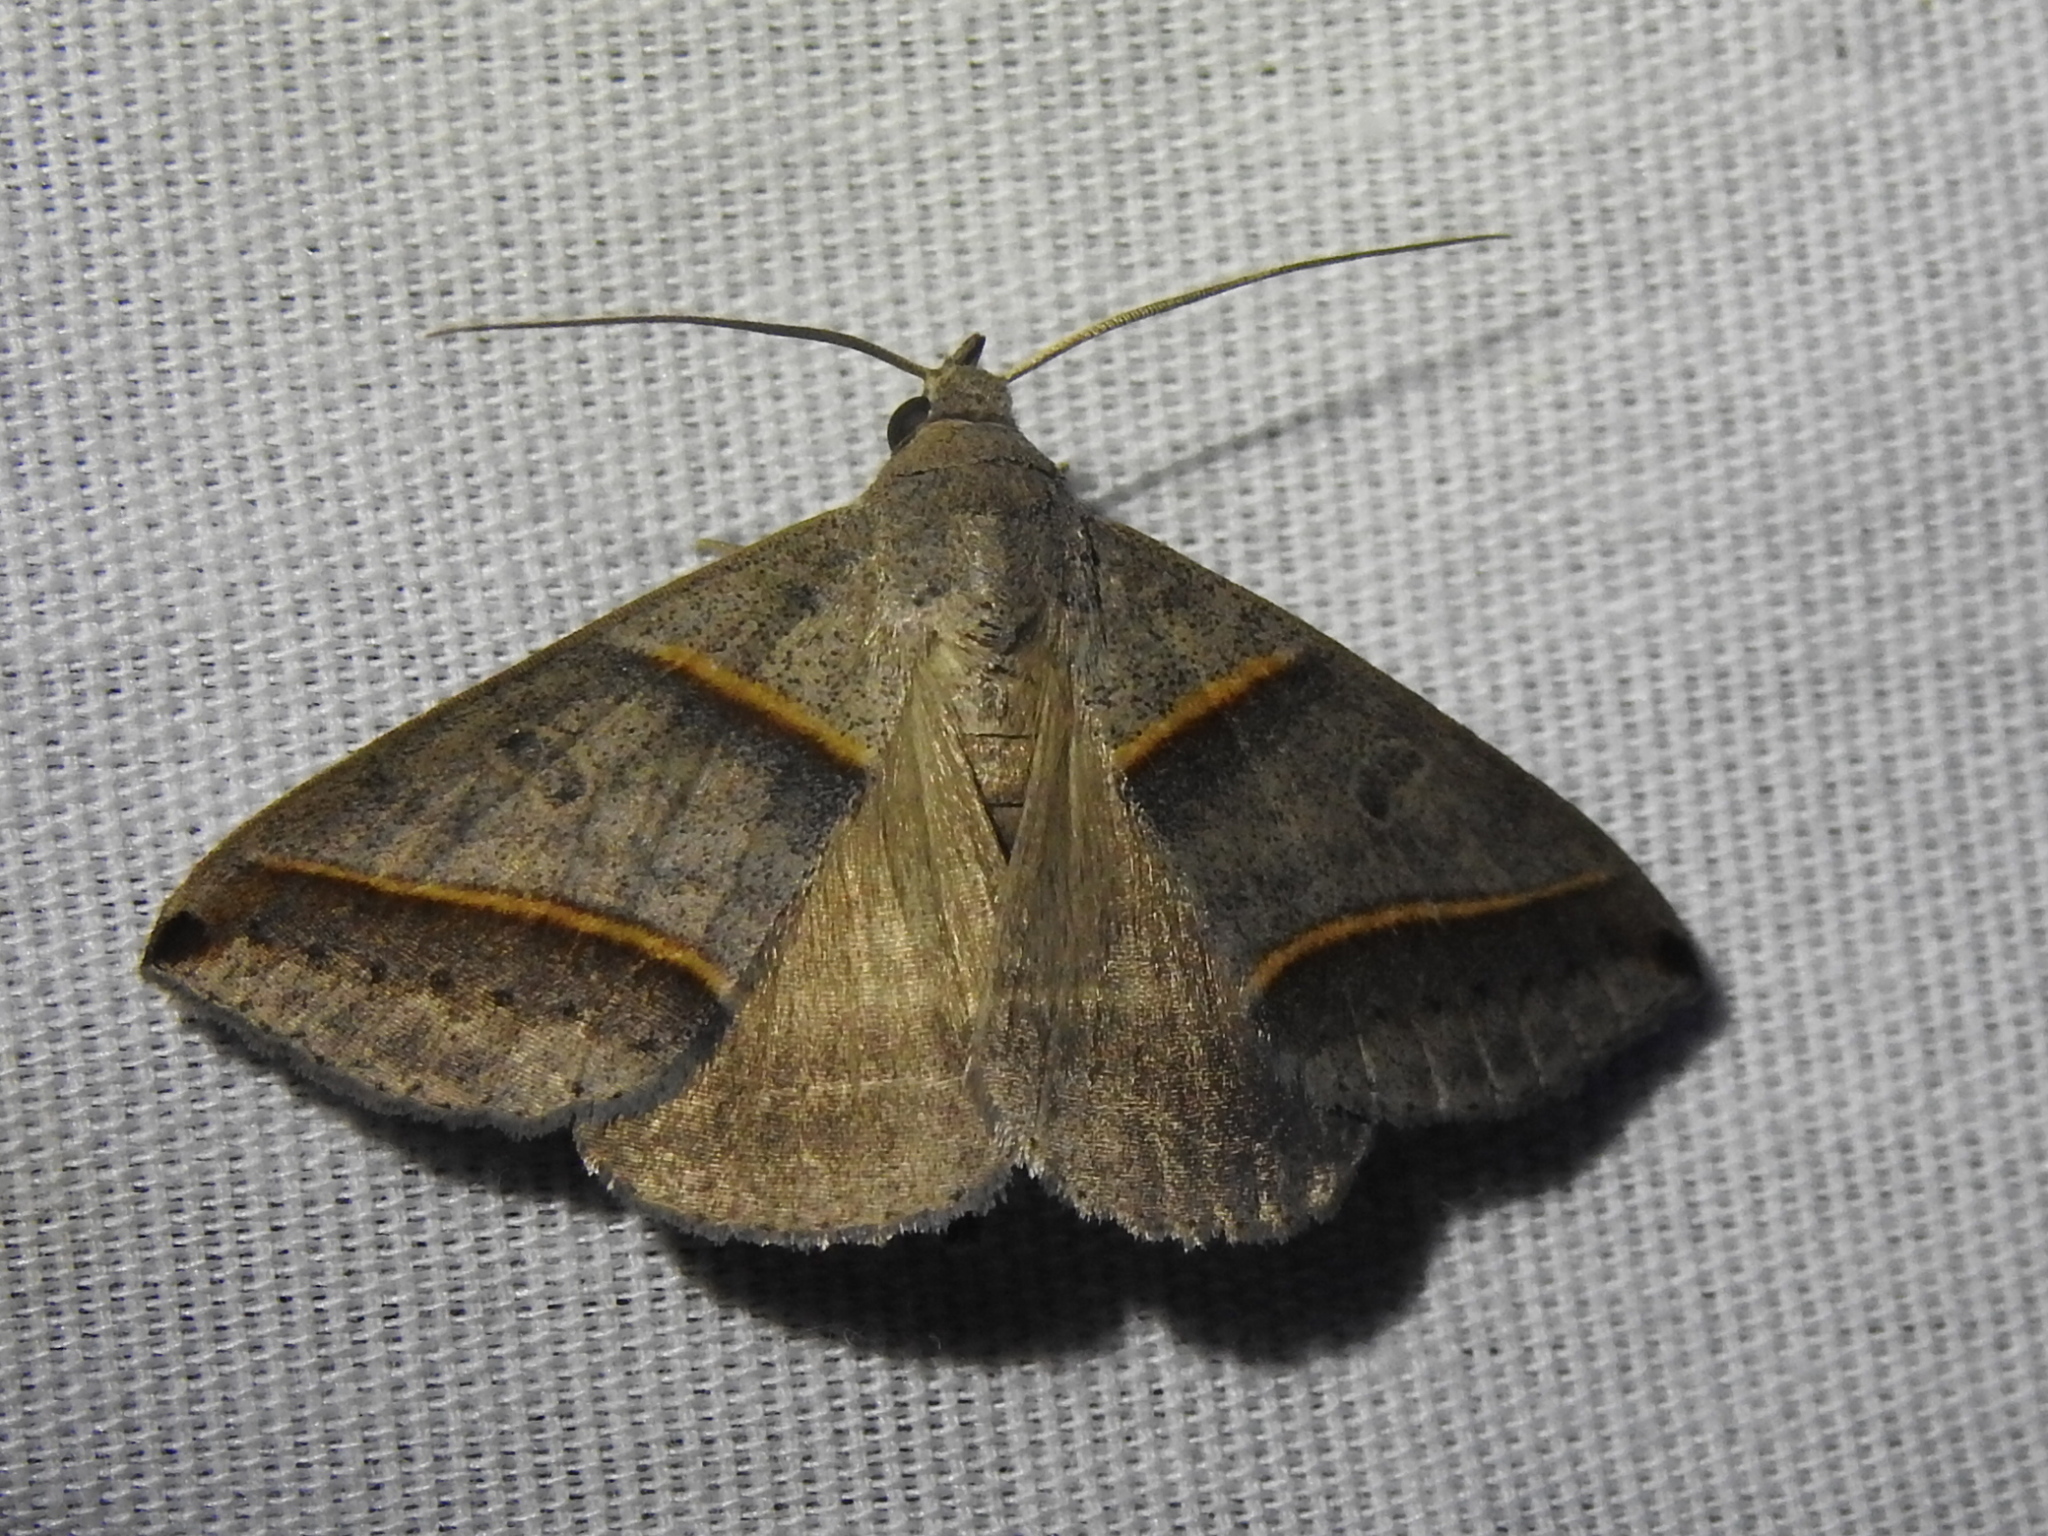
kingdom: Animalia
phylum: Arthropoda
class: Insecta
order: Lepidoptera
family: Erebidae
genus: Ptichodis
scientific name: Ptichodis vinculum
